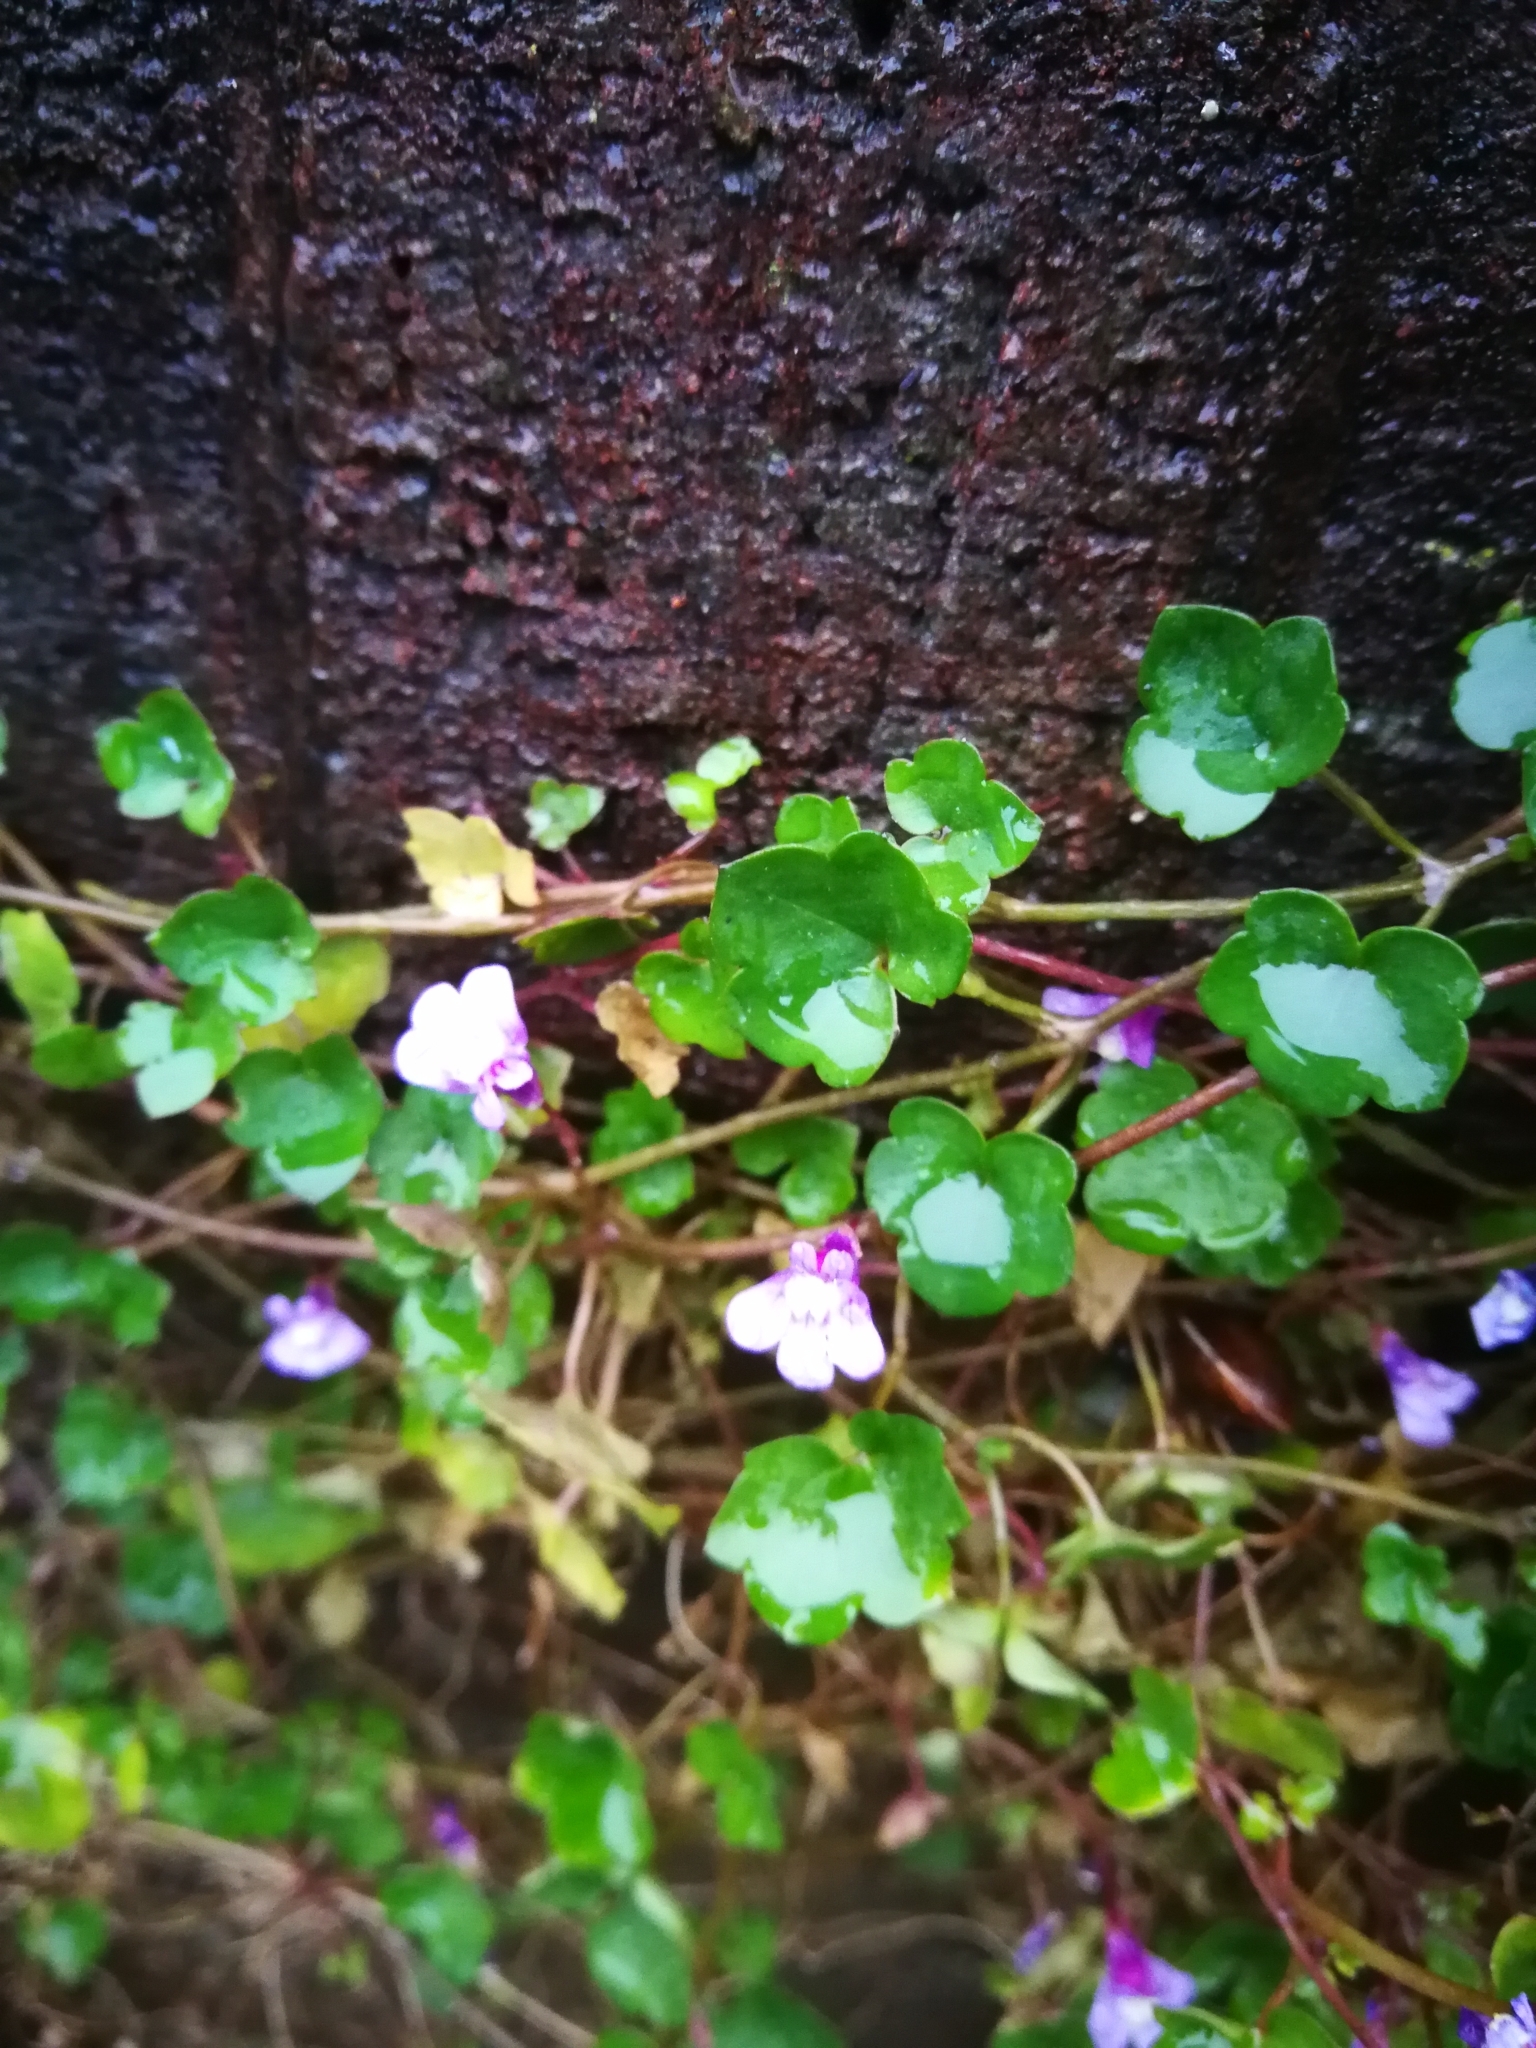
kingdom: Plantae
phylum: Tracheophyta
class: Magnoliopsida
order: Lamiales
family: Plantaginaceae
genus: Cymbalaria
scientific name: Cymbalaria muralis
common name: Ivy-leaved toadflax
